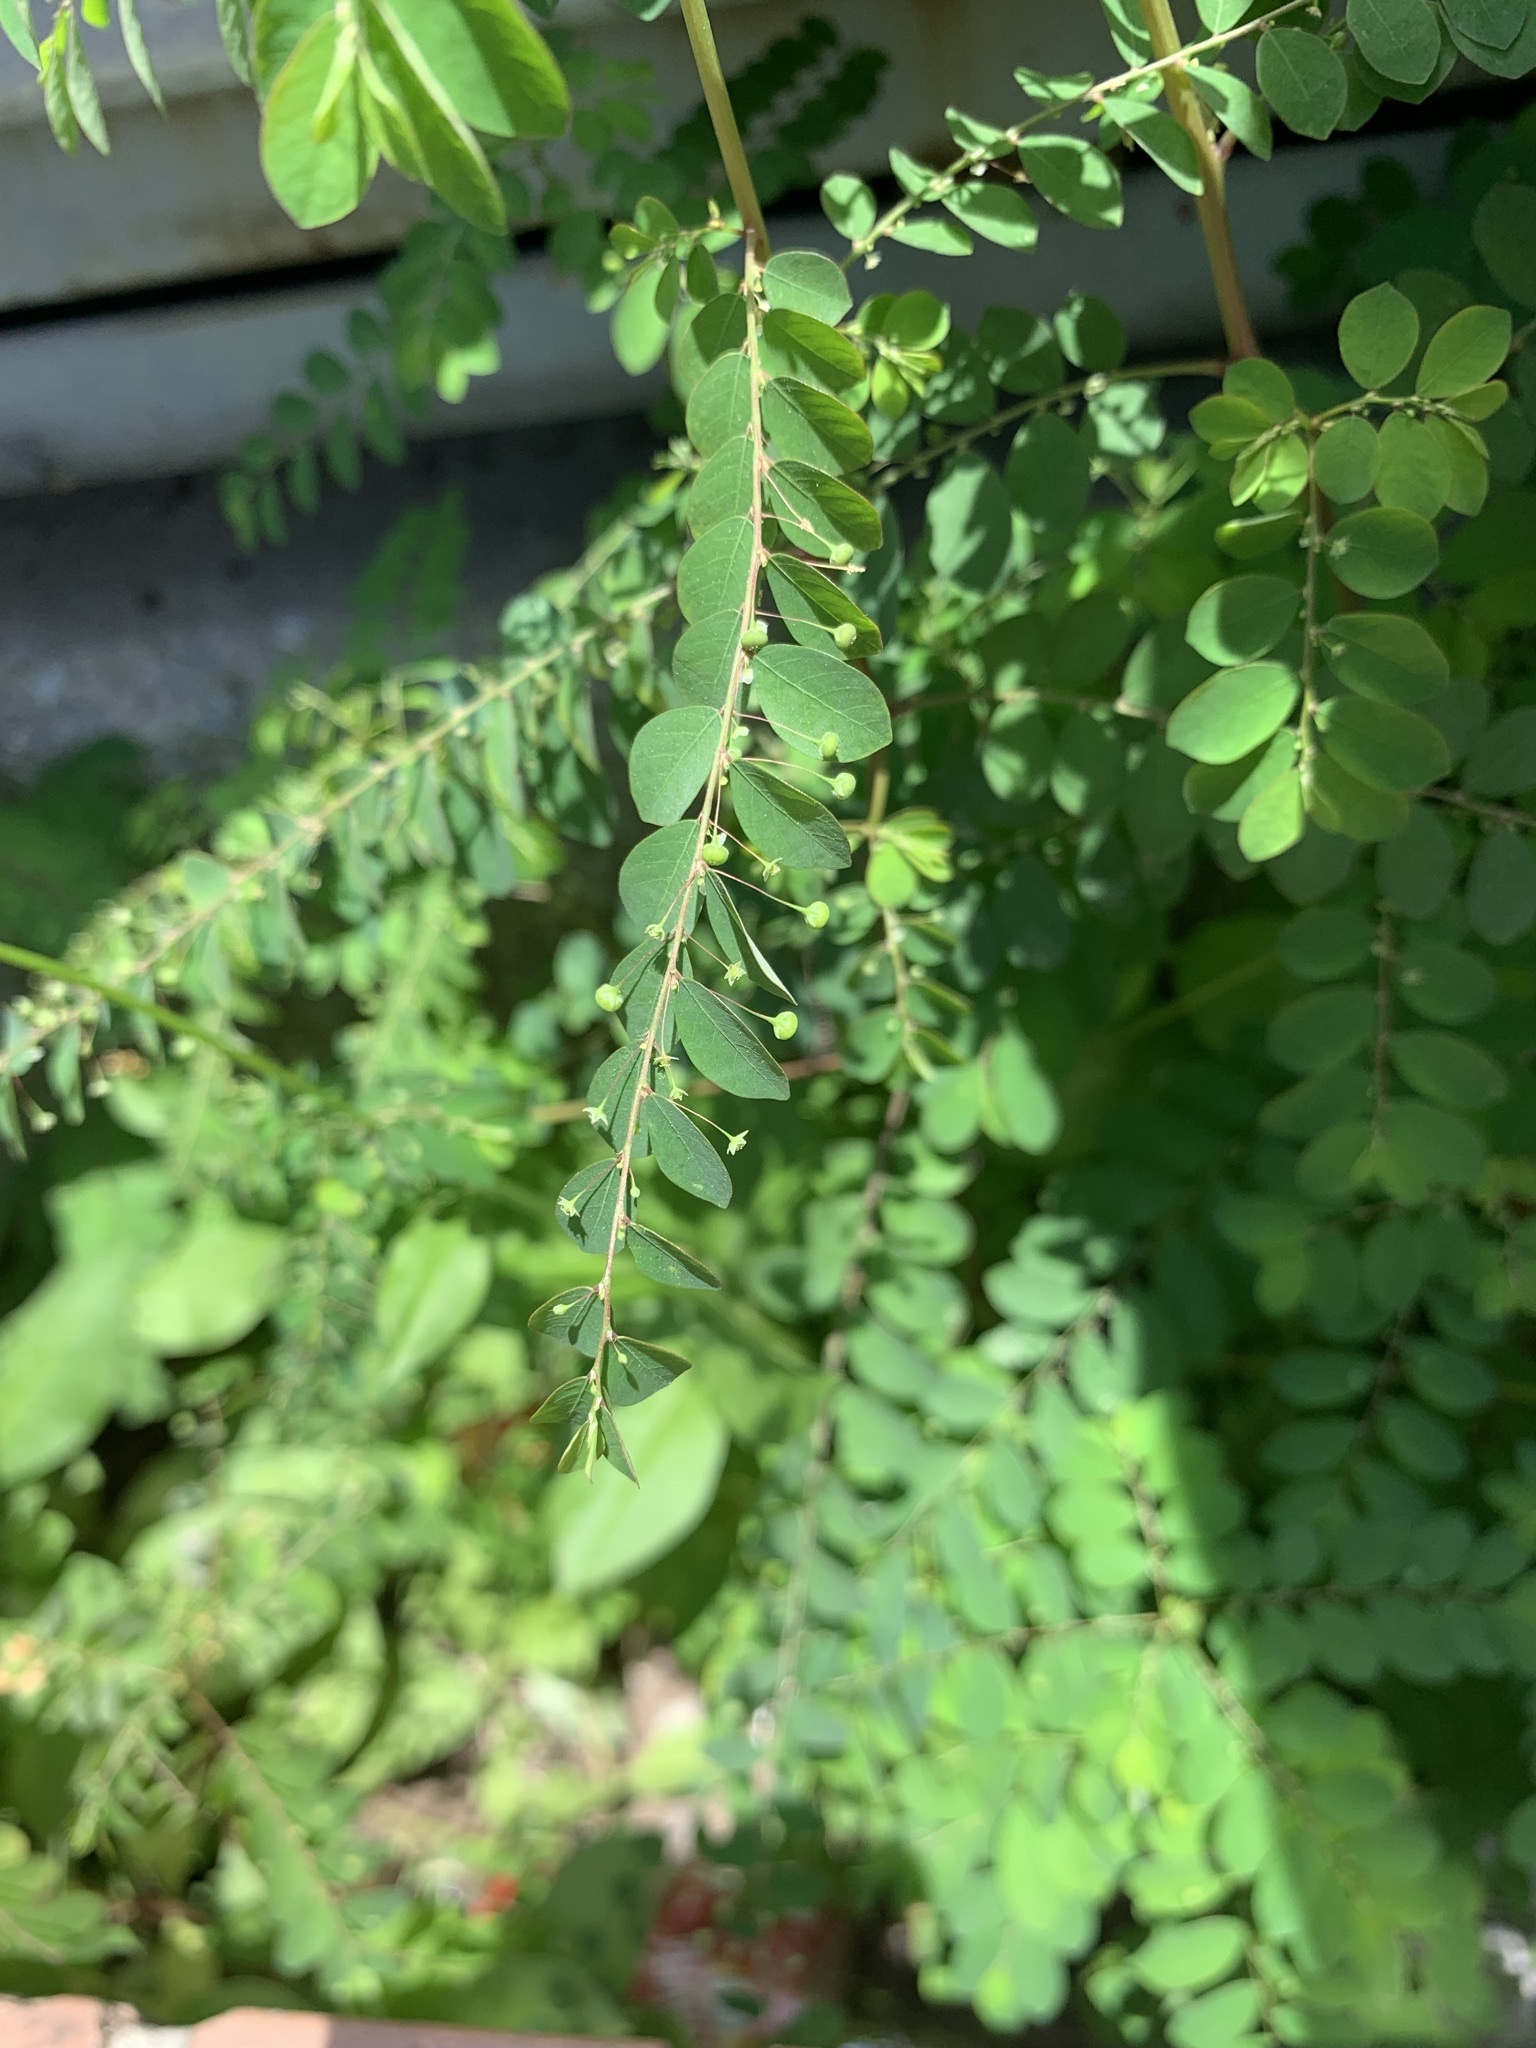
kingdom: Plantae
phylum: Tracheophyta
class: Magnoliopsida
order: Malpighiales
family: Phyllanthaceae
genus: Phyllanthus
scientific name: Phyllanthus tenellus
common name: Mascarene island leaf-flower
